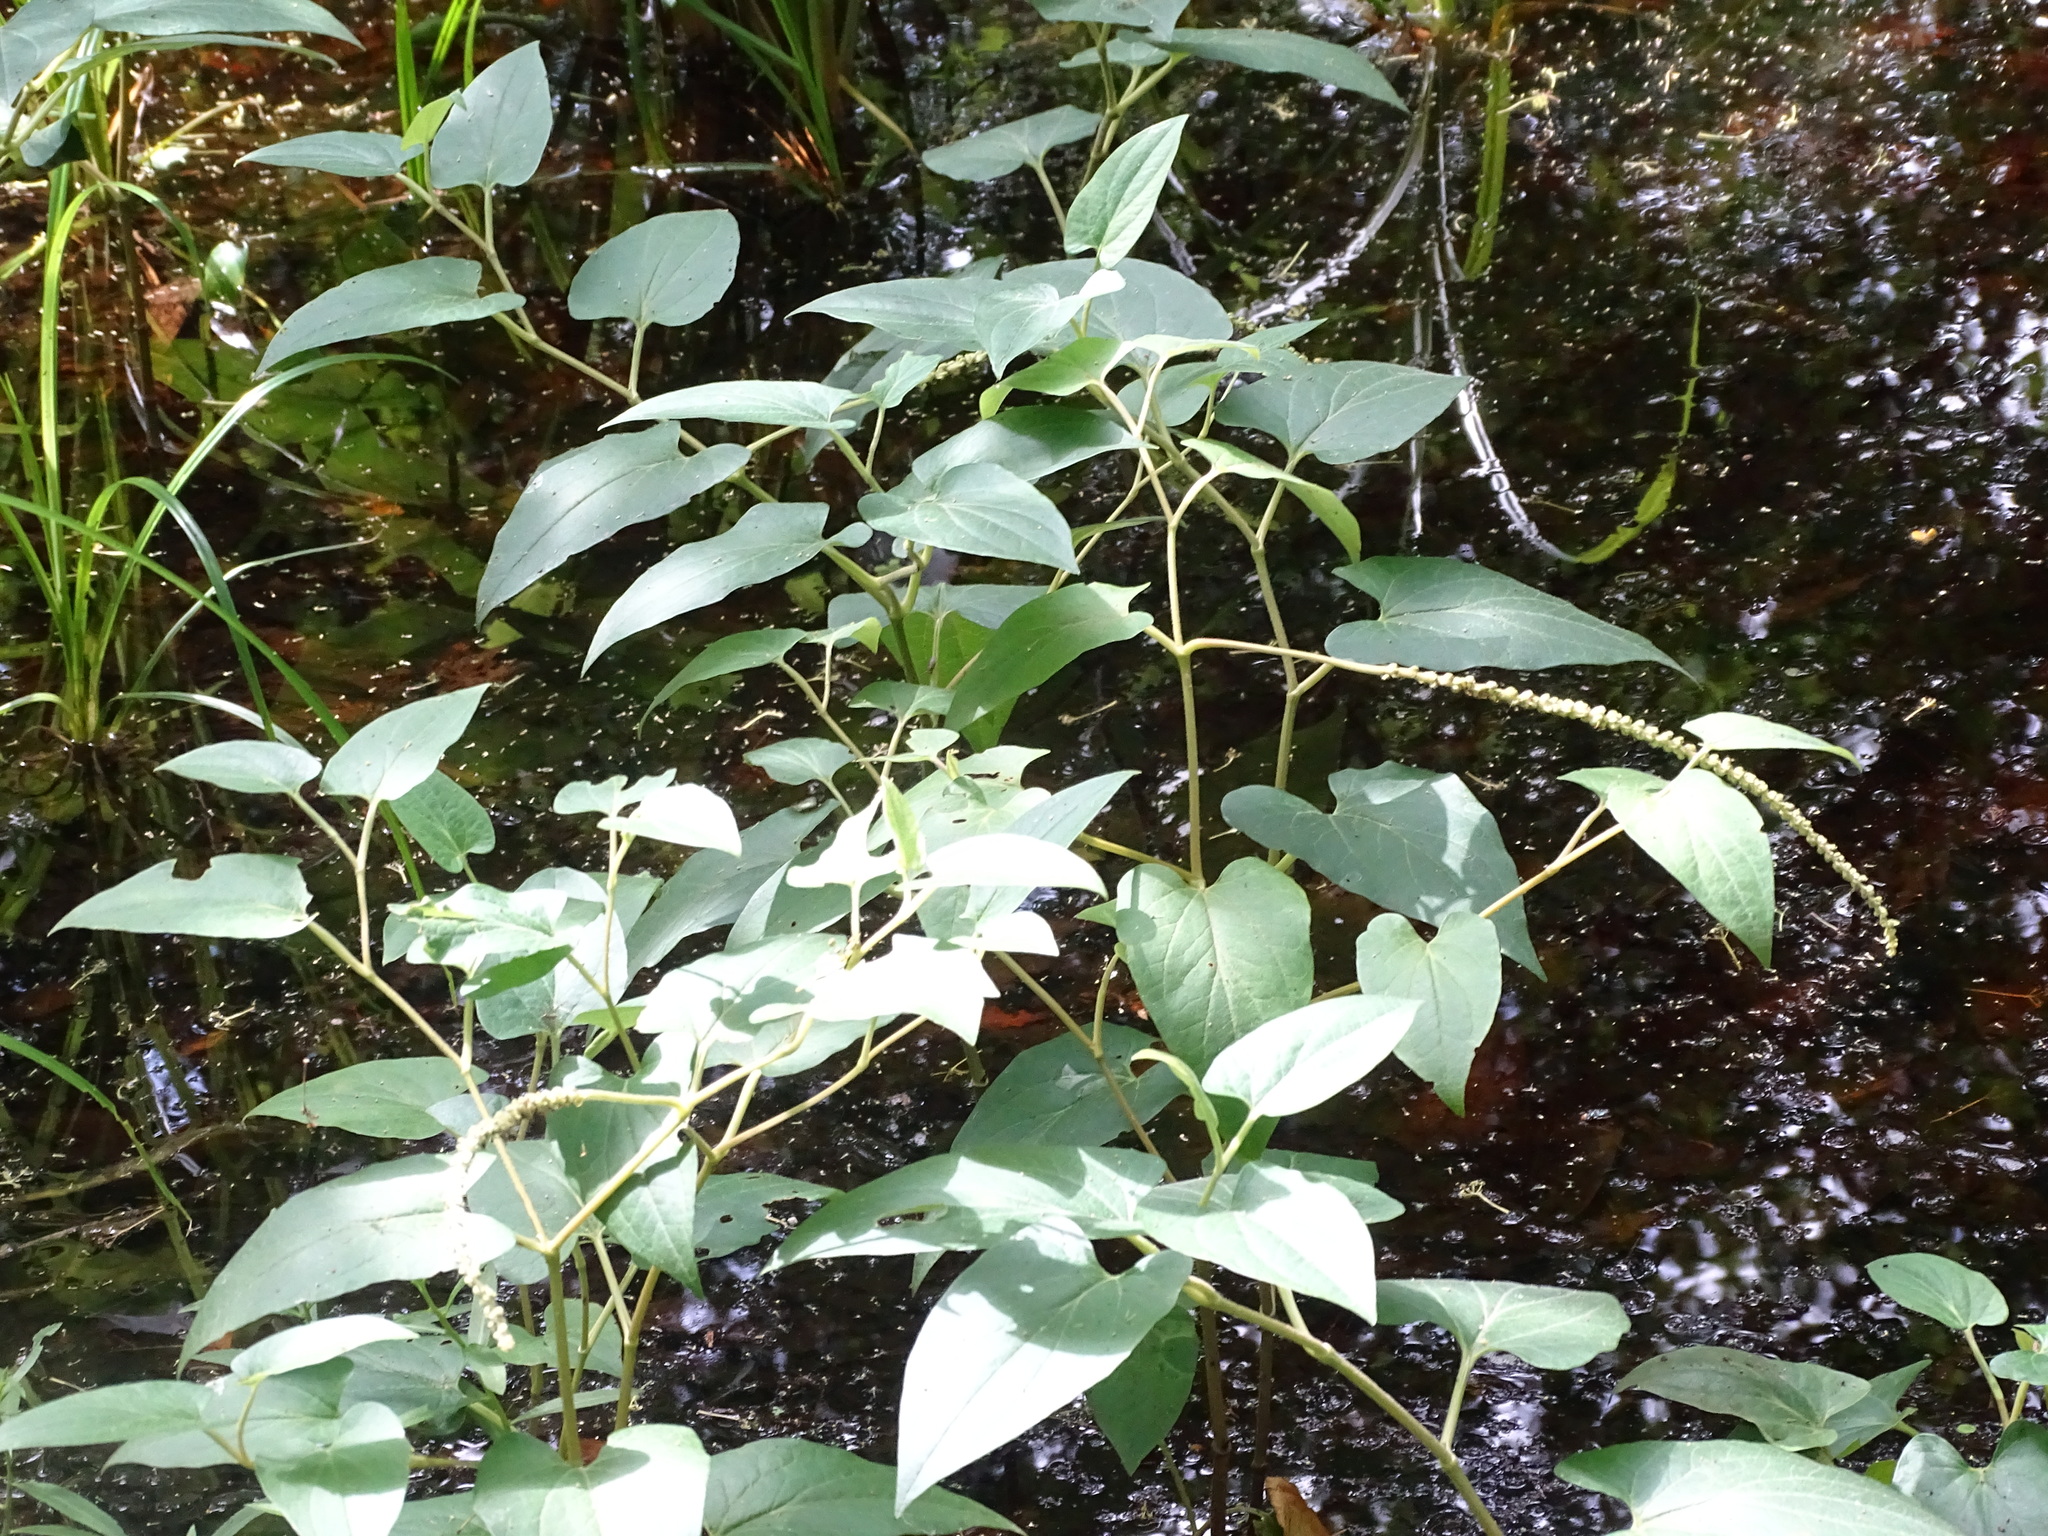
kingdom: Plantae
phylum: Tracheophyta
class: Magnoliopsida
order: Piperales
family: Saururaceae
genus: Saururus
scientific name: Saururus cernuus
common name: Lizard's-tail
